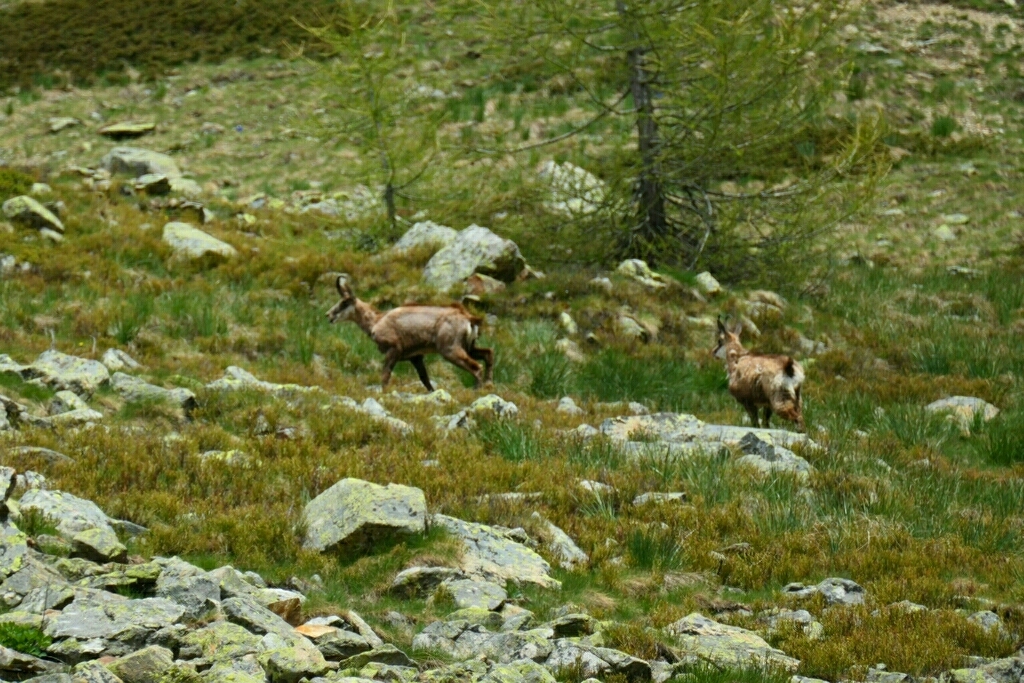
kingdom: Animalia
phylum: Chordata
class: Mammalia
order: Artiodactyla
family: Bovidae
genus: Rupicapra
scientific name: Rupicapra rupicapra
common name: Chamois
